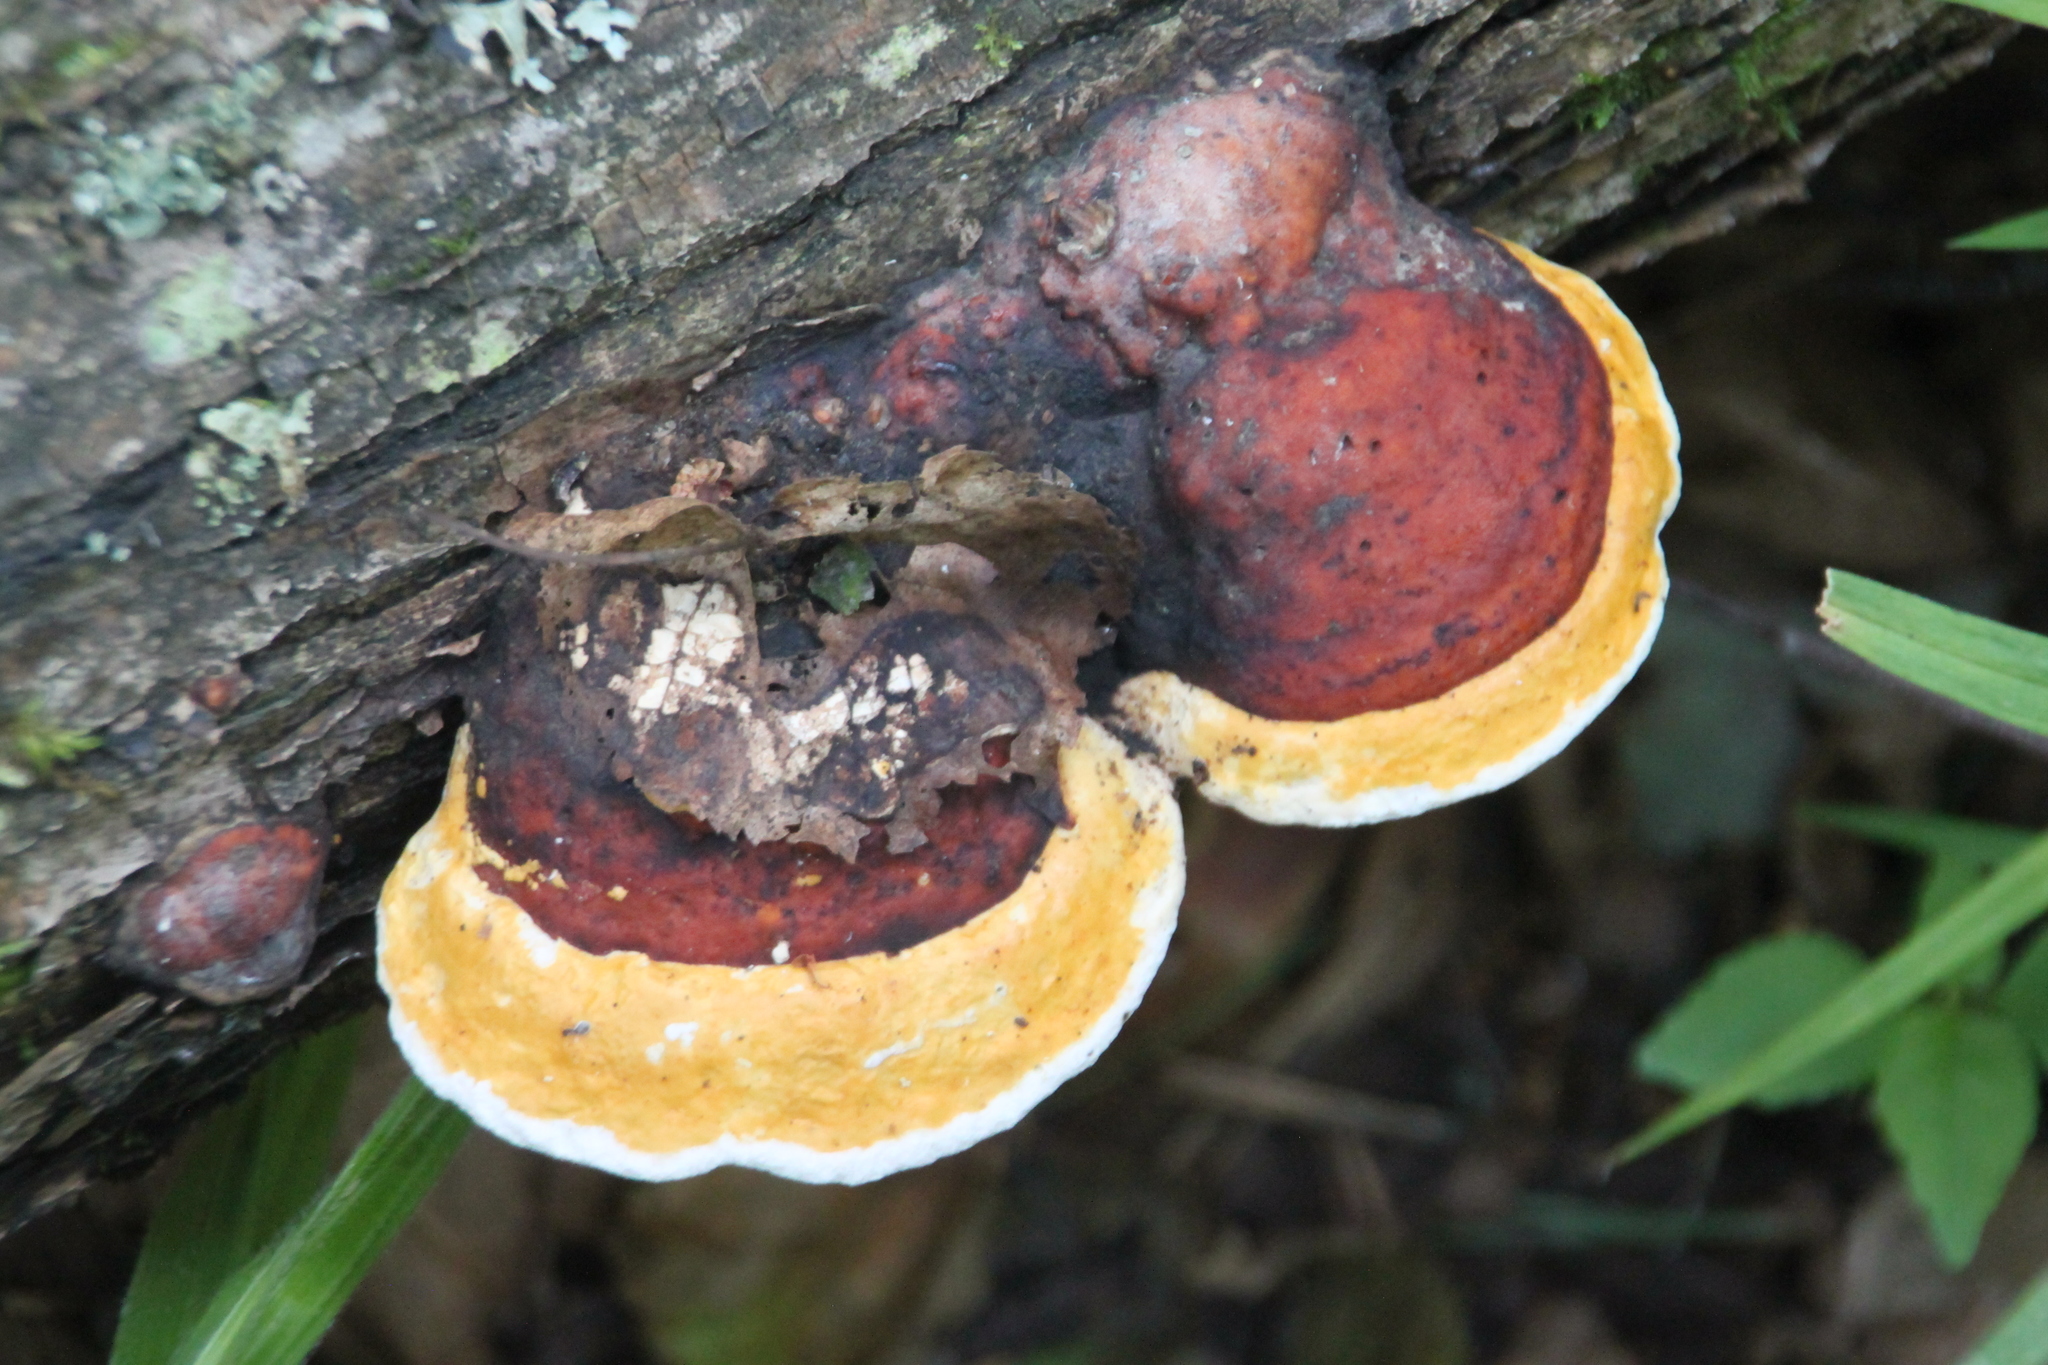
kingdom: Fungi
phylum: Basidiomycota
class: Agaricomycetes
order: Polyporales
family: Fomitopsidaceae
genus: Fomitopsis
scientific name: Fomitopsis pinicola
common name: Red-belted bracket
